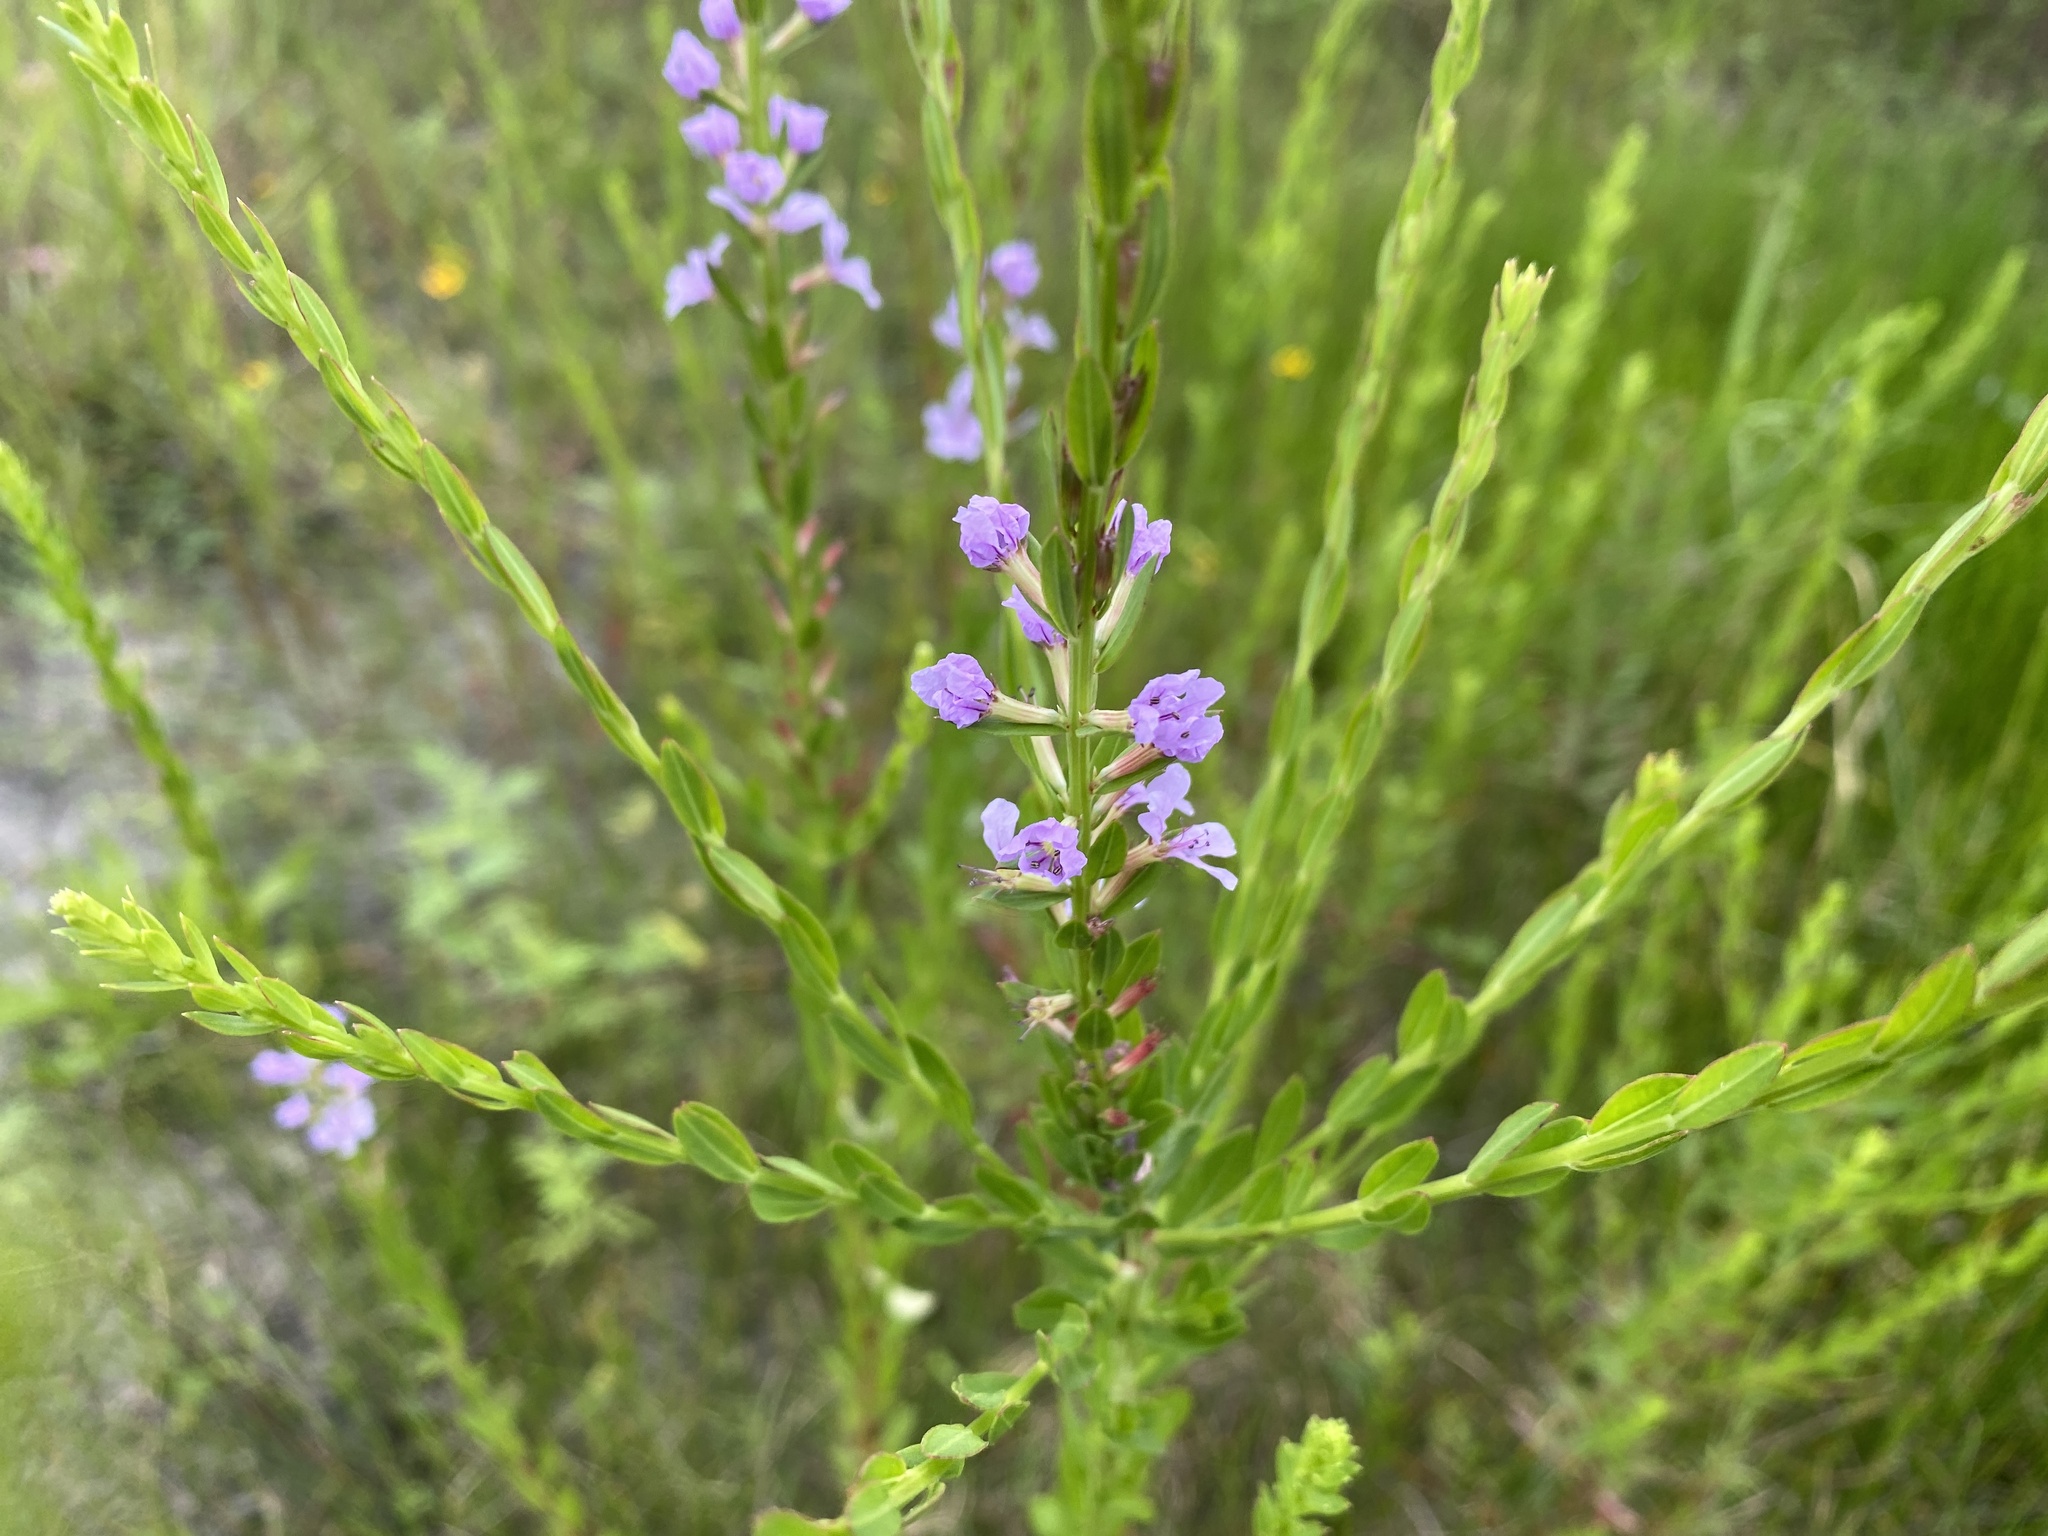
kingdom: Plantae
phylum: Tracheophyta
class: Magnoliopsida
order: Myrtales
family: Lythraceae
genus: Lythrum
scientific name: Lythrum alatum
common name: Winged loosestrife
